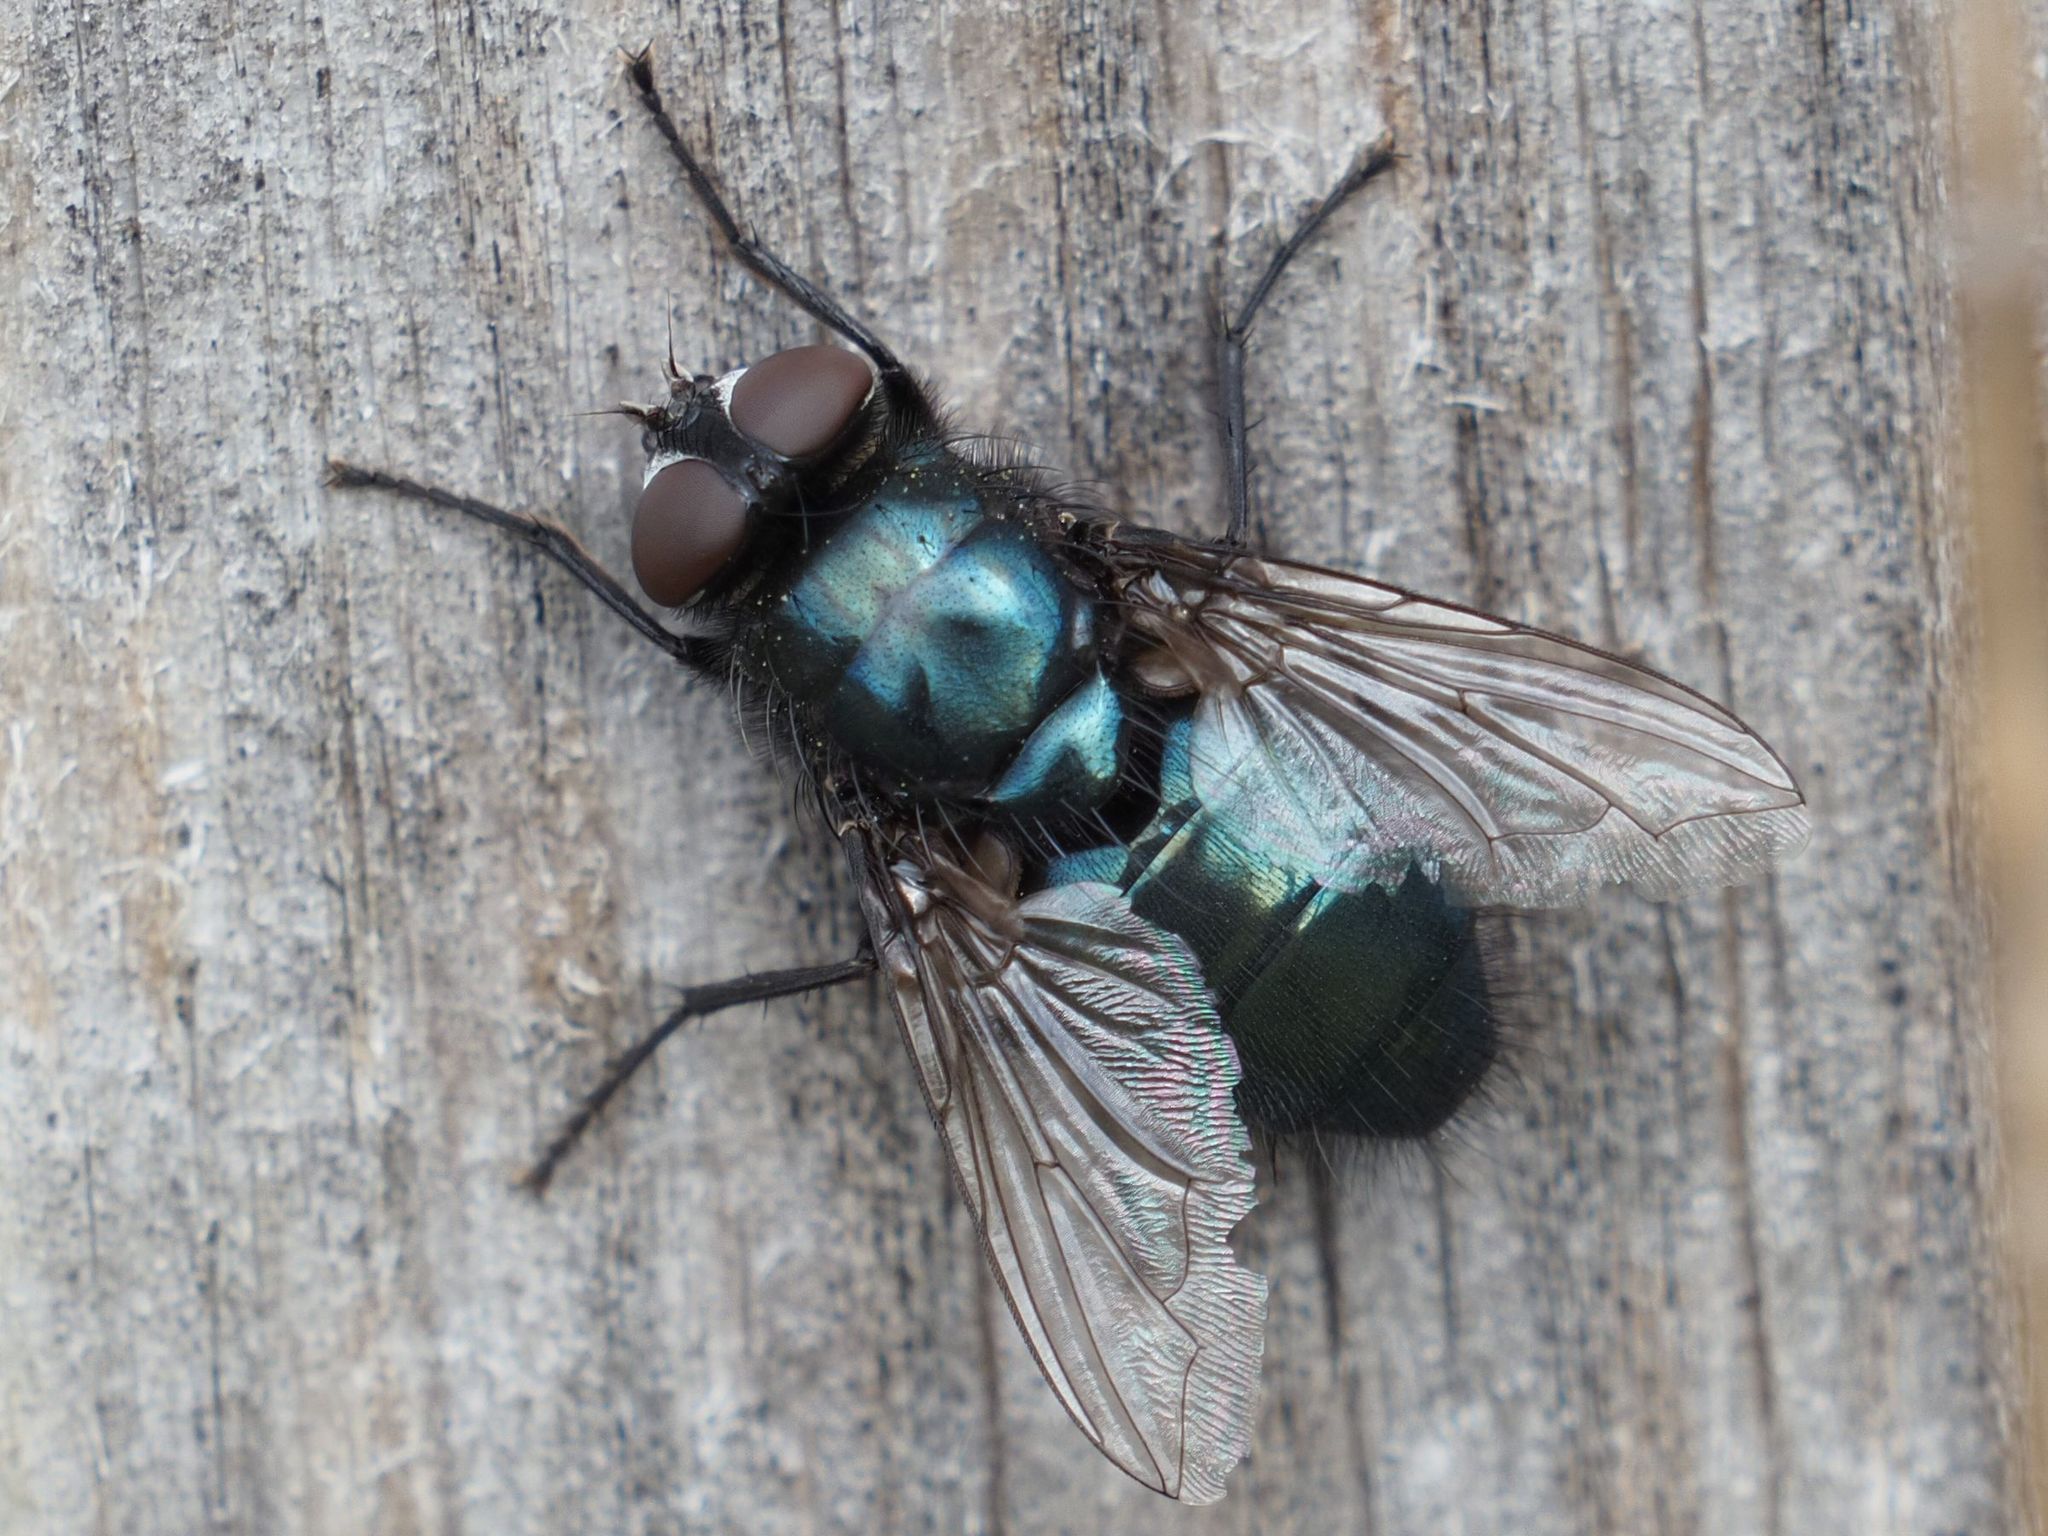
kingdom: Animalia
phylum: Arthropoda
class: Insecta
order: Diptera
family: Calliphoridae
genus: Protophormia
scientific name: Protophormia terraenovae
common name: Blackbottle
